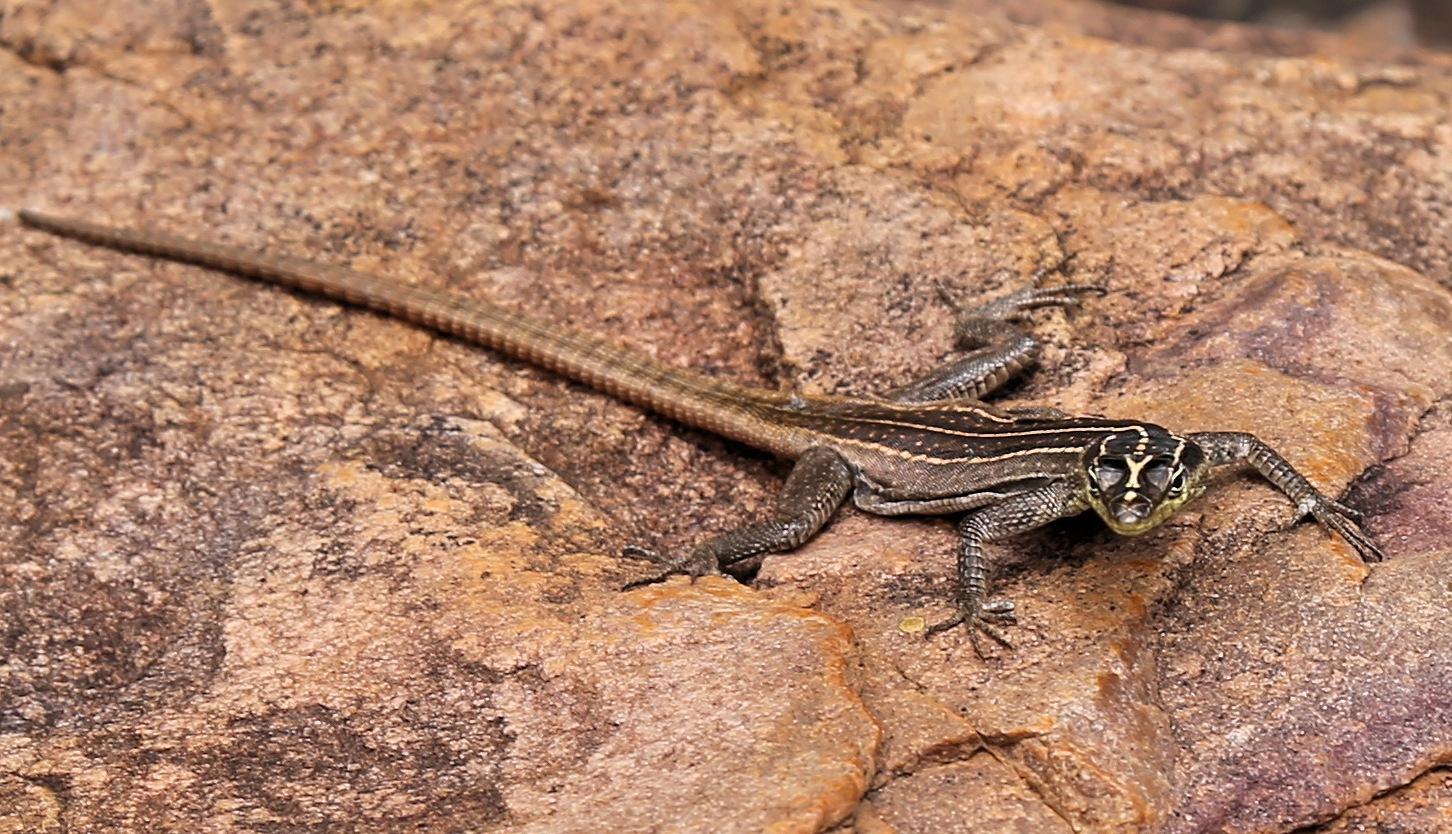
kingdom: Animalia
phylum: Chordata
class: Squamata
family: Cordylidae
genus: Platysaurus
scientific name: Platysaurus relictus
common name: Soutpansberg flat lizard
